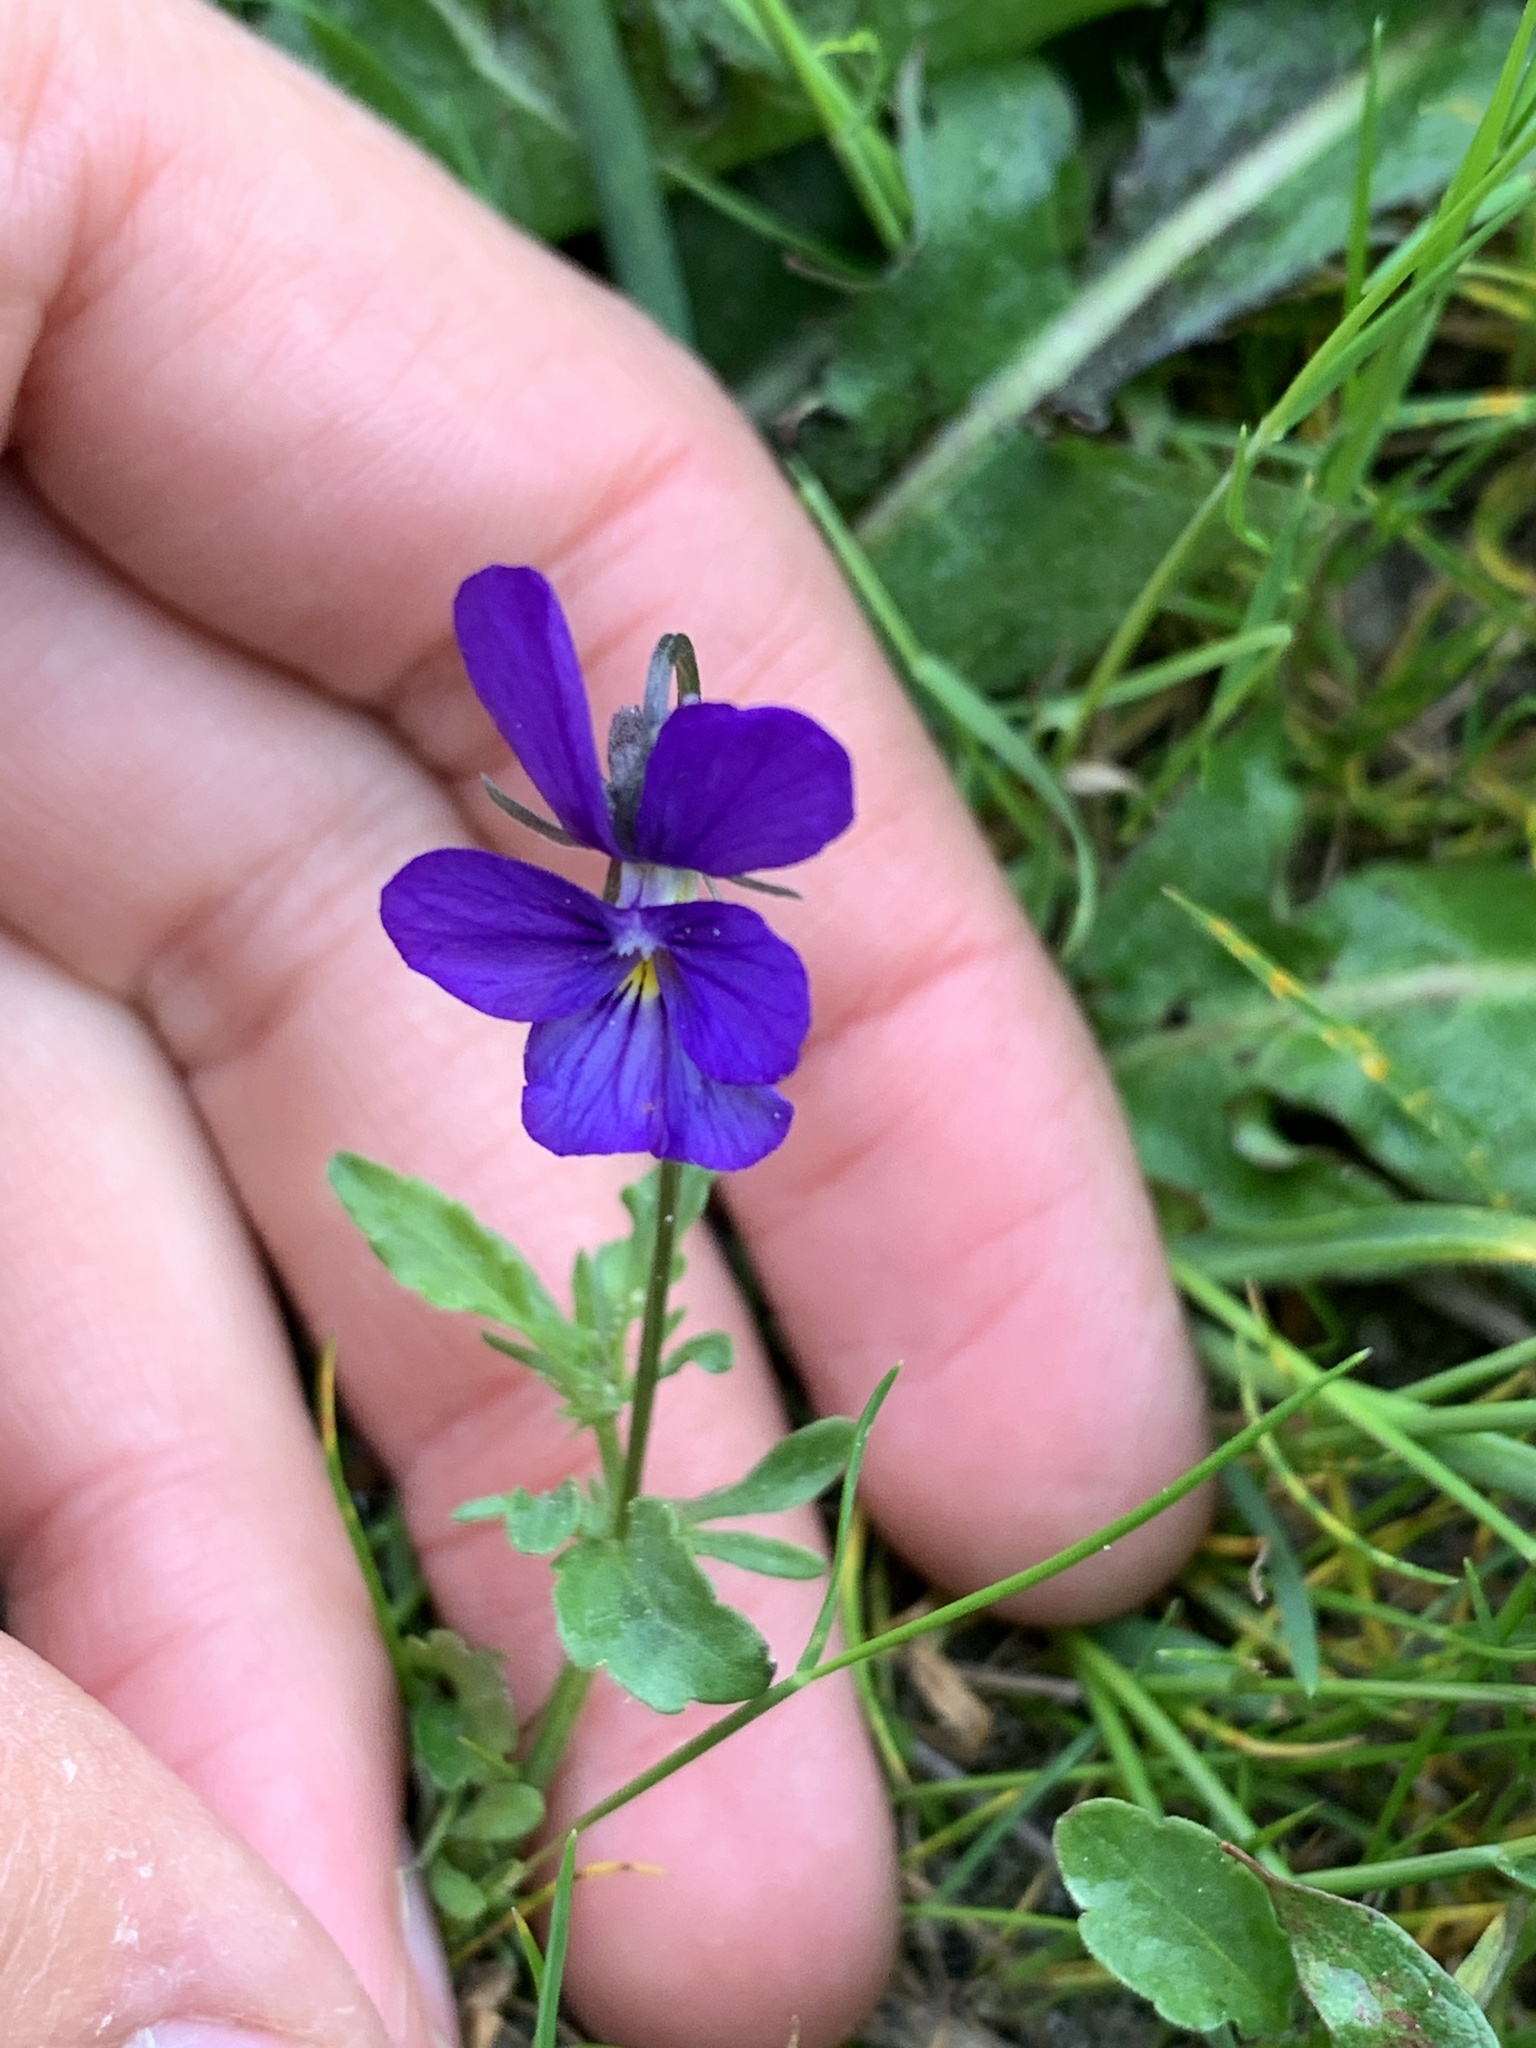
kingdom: Plantae
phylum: Tracheophyta
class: Magnoliopsida
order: Malpighiales
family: Violaceae
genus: Viola
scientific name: Viola tricolor
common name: Pansy
